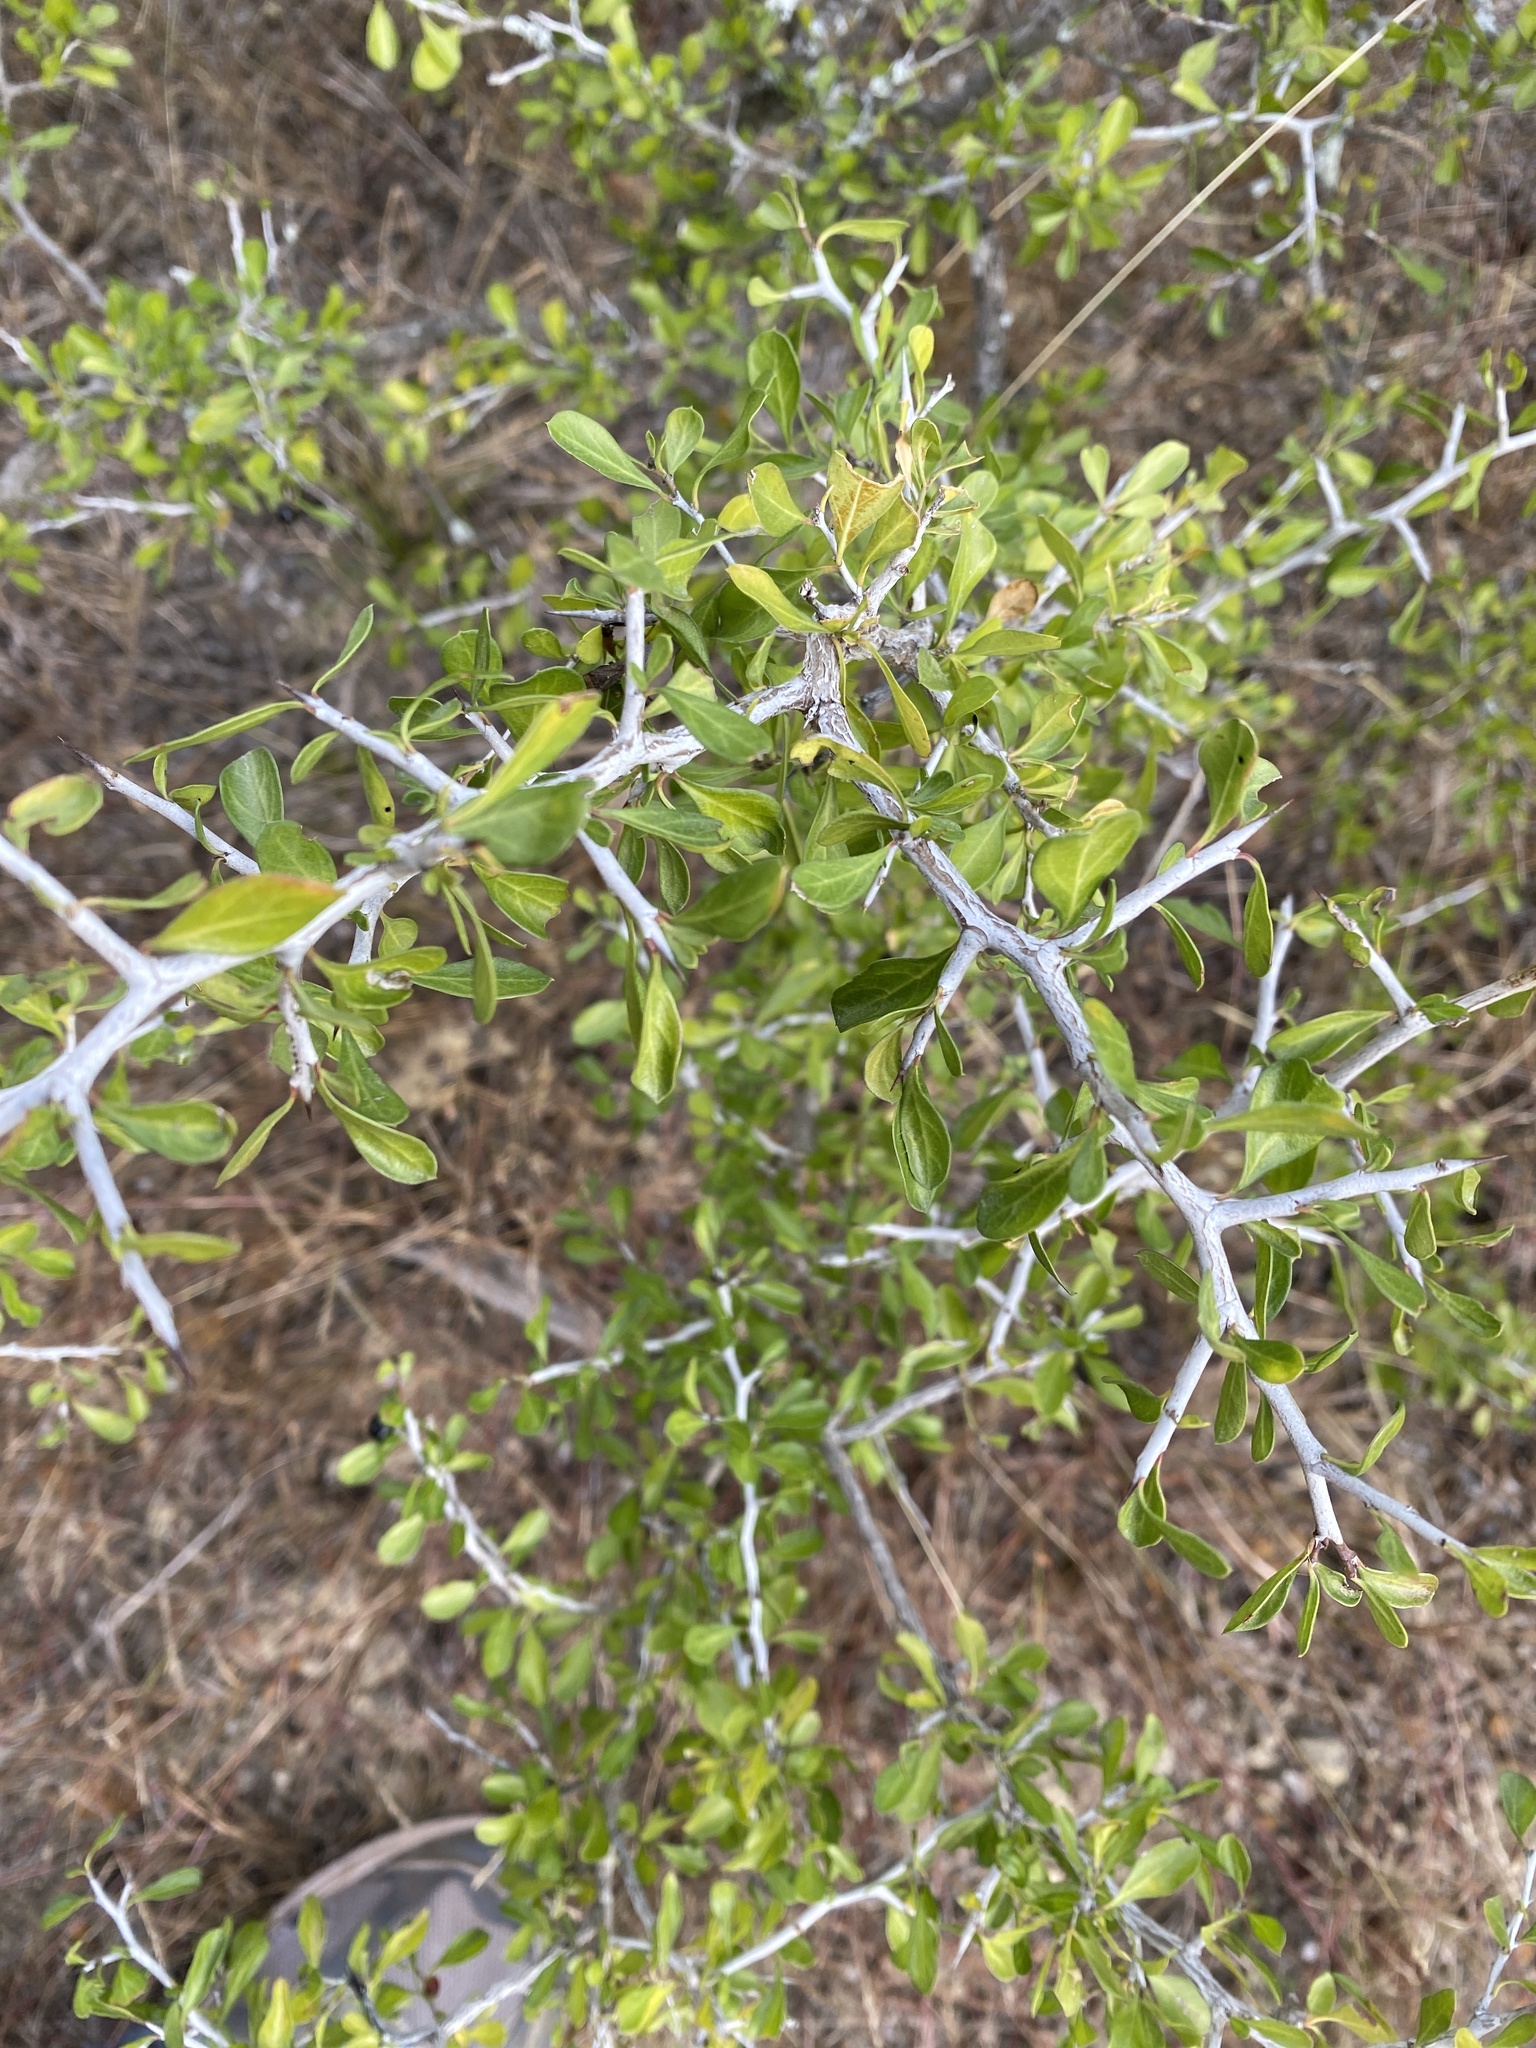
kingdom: Plantae
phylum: Tracheophyta
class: Magnoliopsida
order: Rosales
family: Rhamnaceae
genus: Condalia
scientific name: Condalia hookeri
